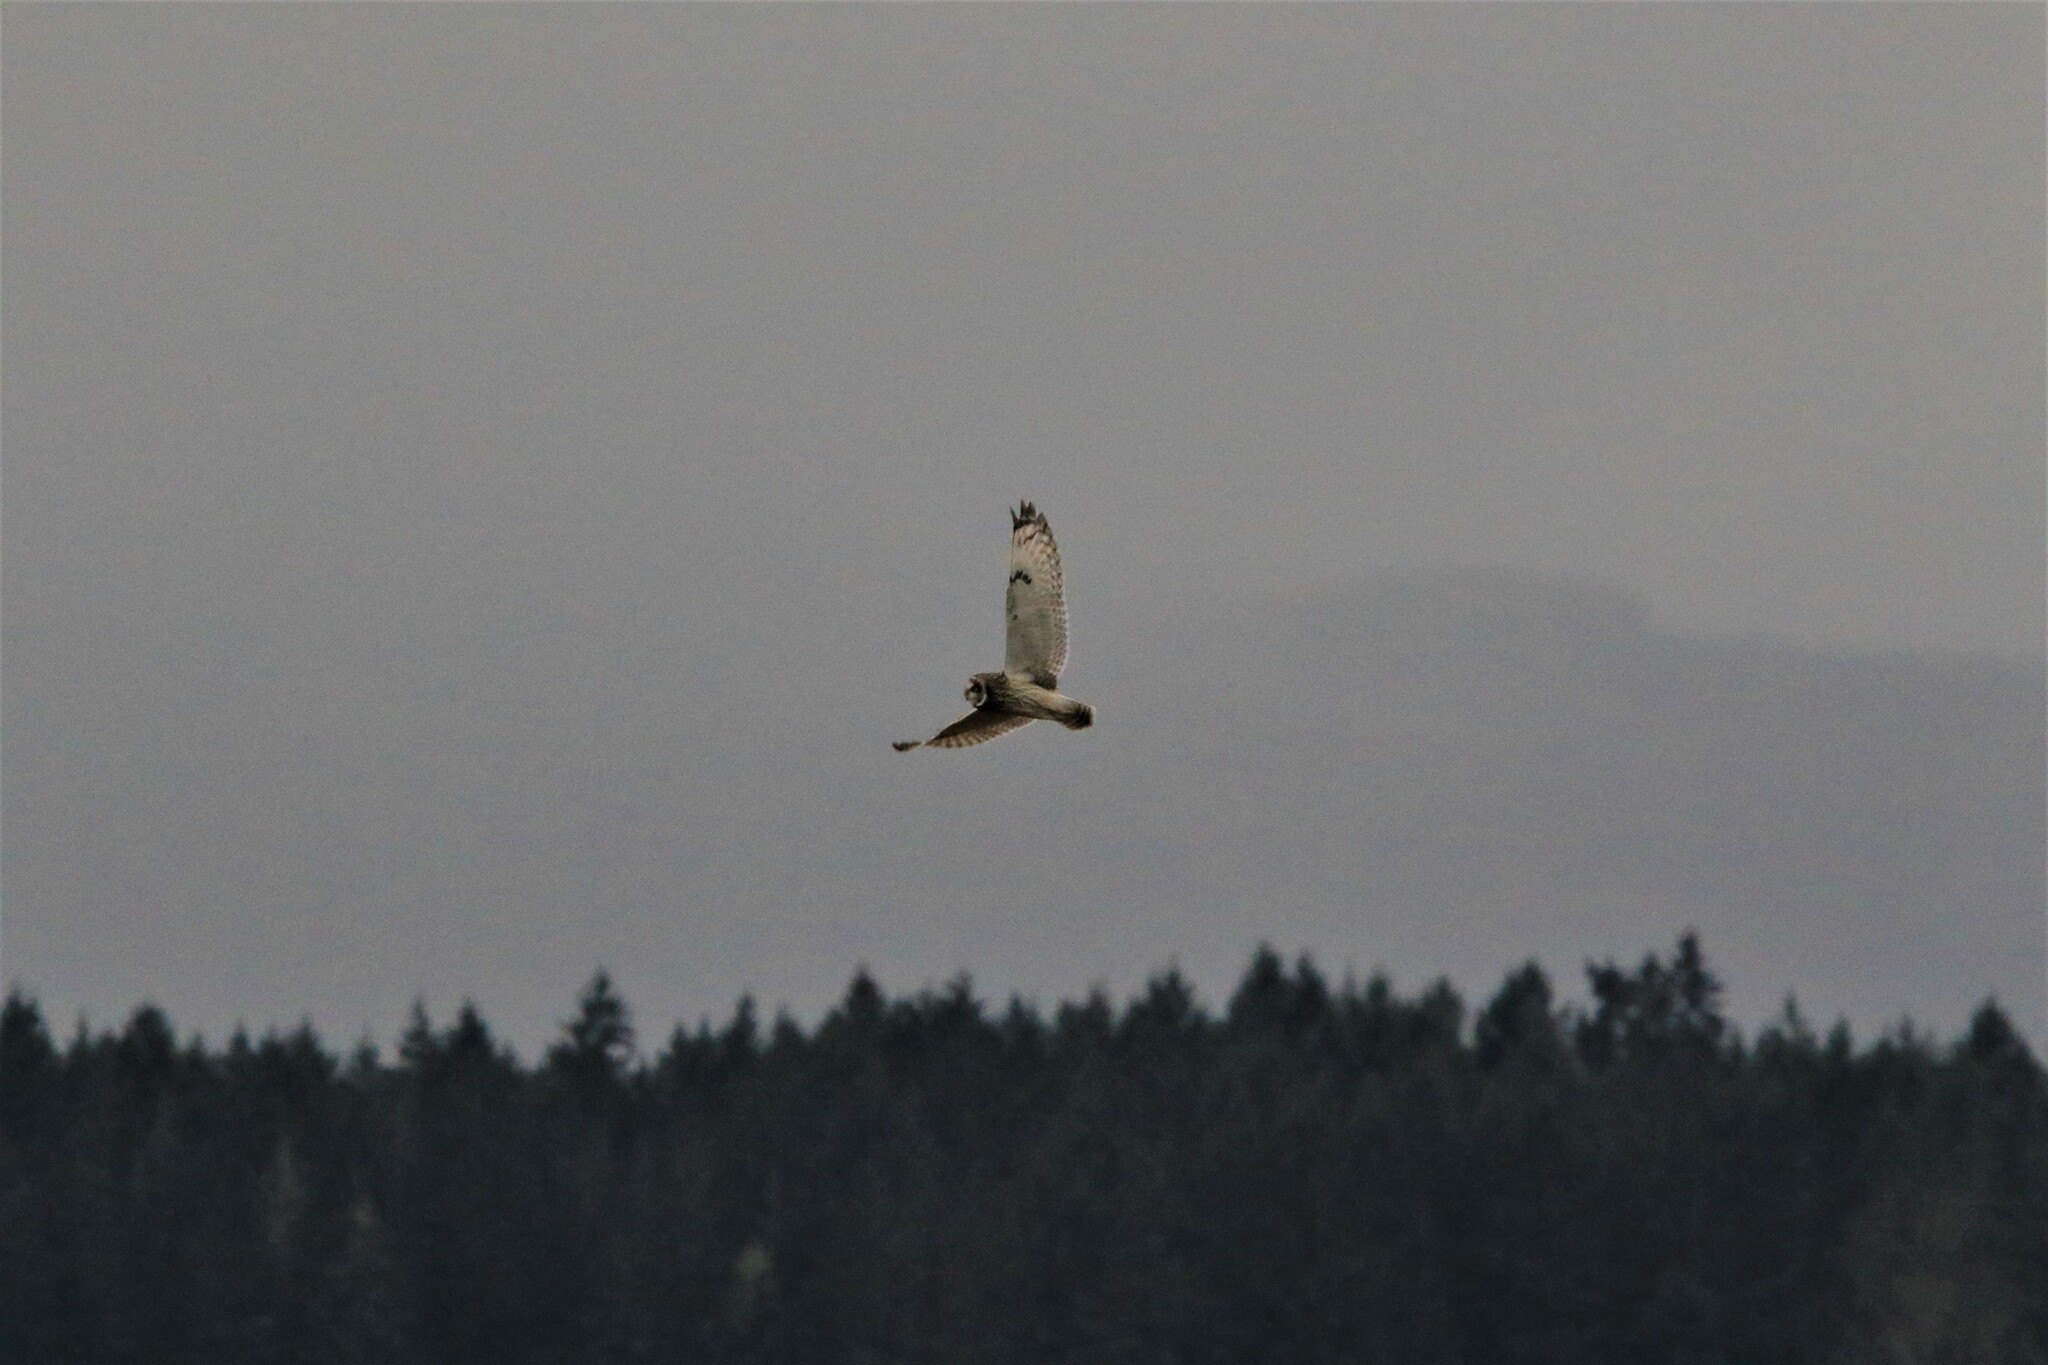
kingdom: Animalia
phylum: Chordata
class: Aves
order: Strigiformes
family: Strigidae
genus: Asio
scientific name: Asio flammeus
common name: Short-eared owl
